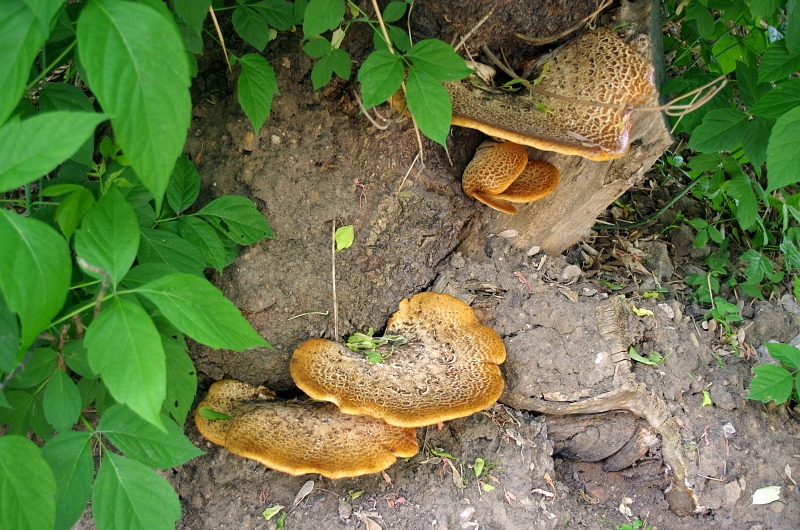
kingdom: Fungi
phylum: Basidiomycota
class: Agaricomycetes
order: Polyporales
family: Polyporaceae
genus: Cerioporus
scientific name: Cerioporus squamosus
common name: Dryad's saddle
